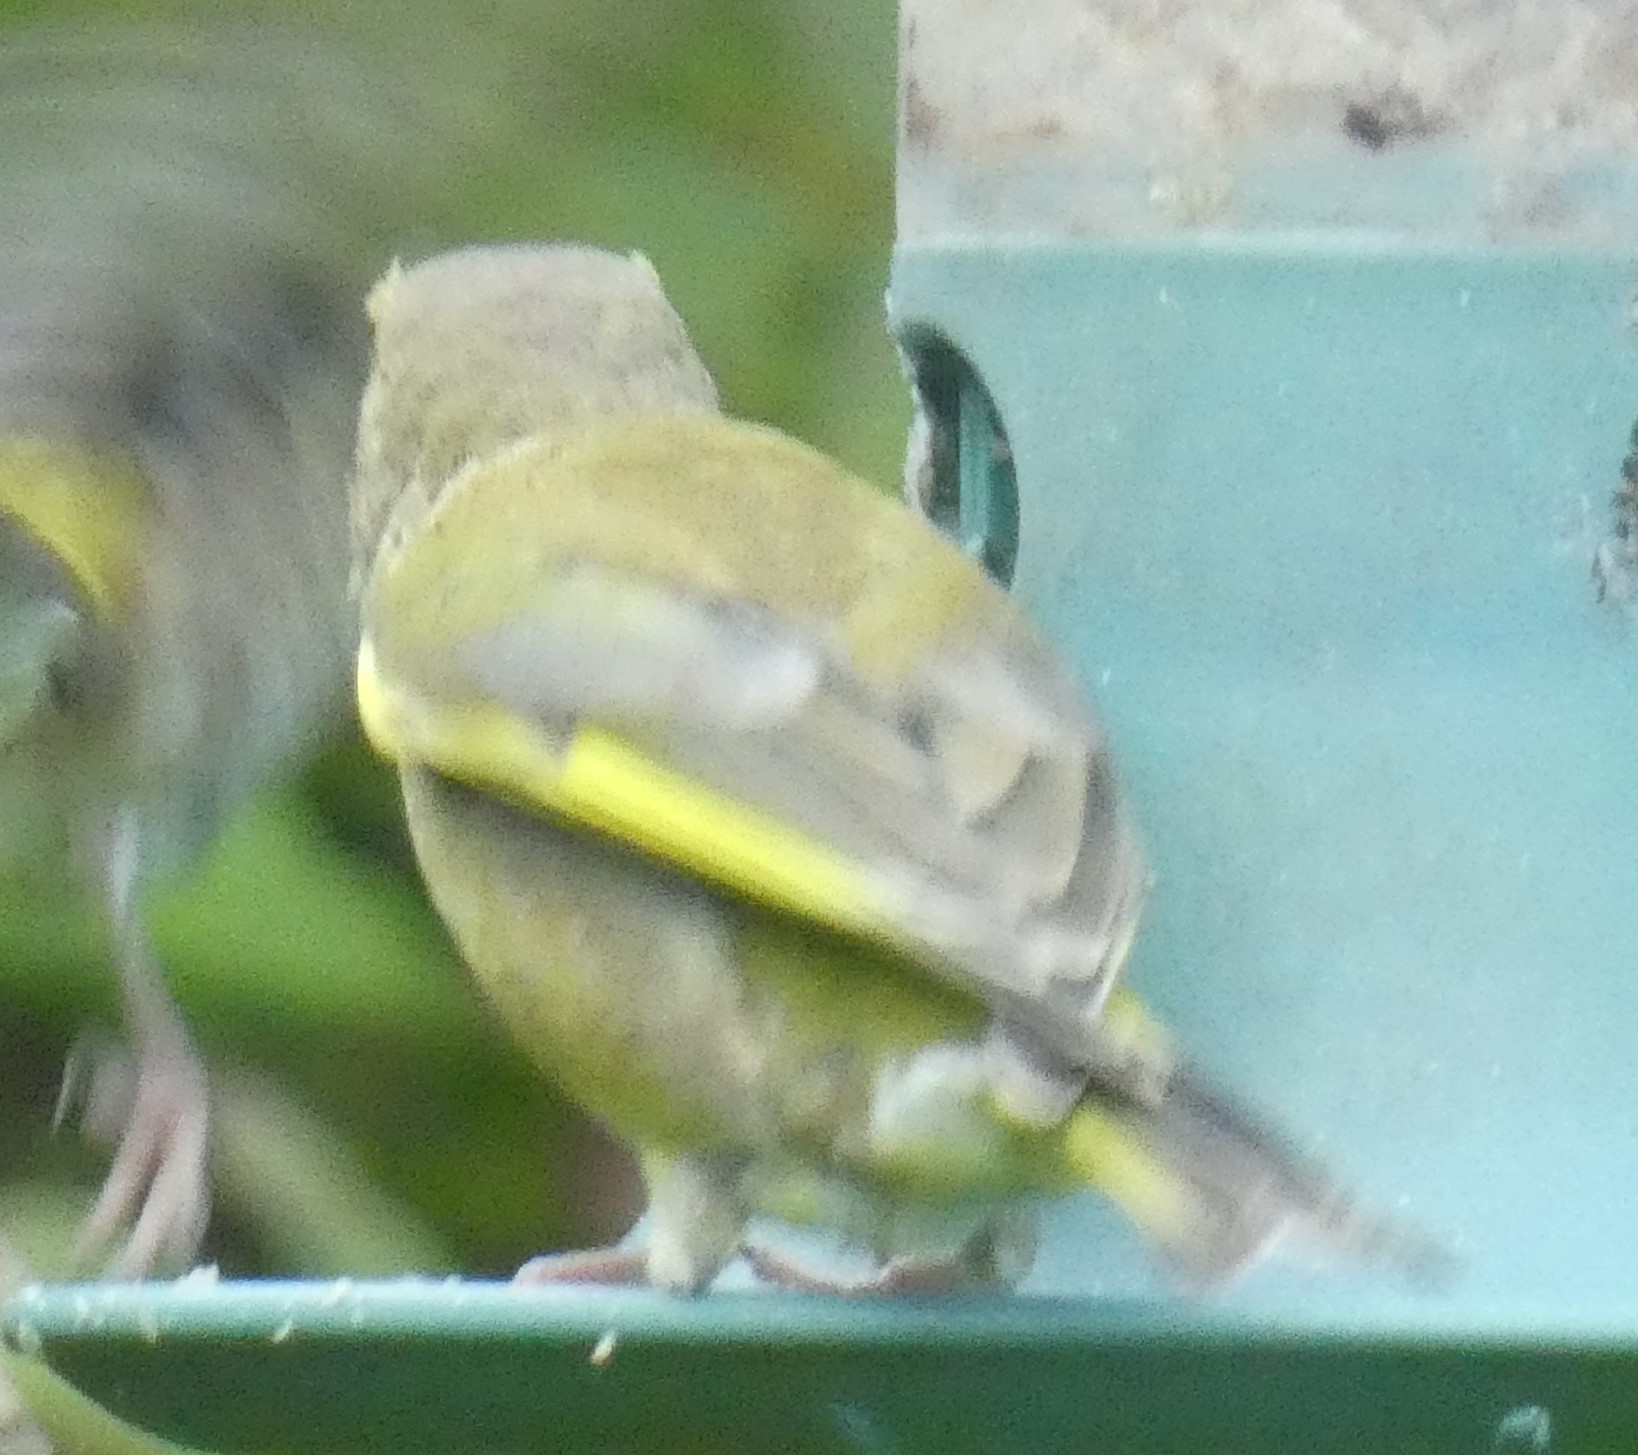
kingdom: Plantae
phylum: Tracheophyta
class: Liliopsida
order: Poales
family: Poaceae
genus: Chloris
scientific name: Chloris chloris
